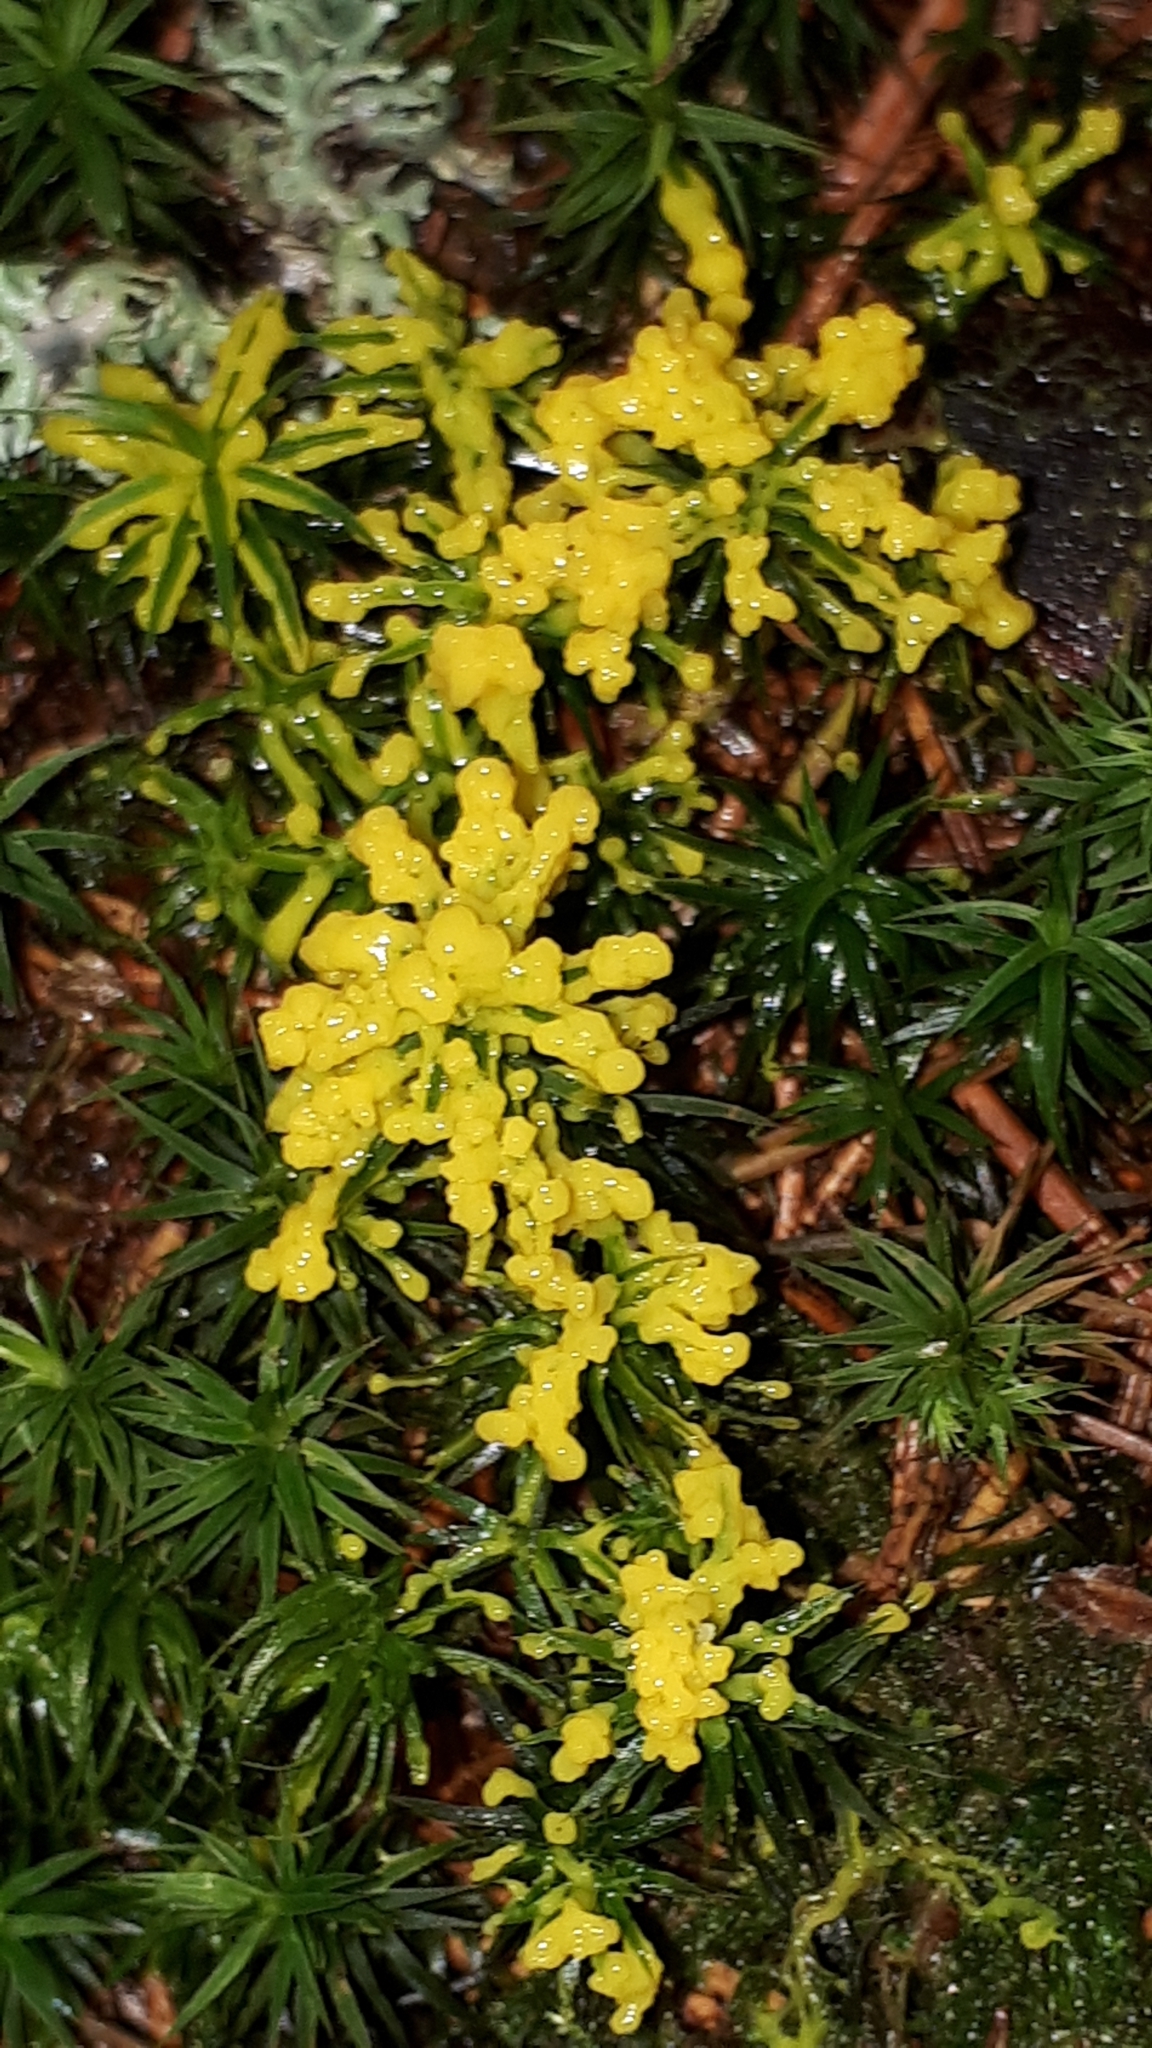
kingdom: Protozoa
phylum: Mycetozoa
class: Myxomycetes
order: Physarales
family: Physaraceae
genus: Fuligo
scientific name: Fuligo septica
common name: Dog vomit slime mold
